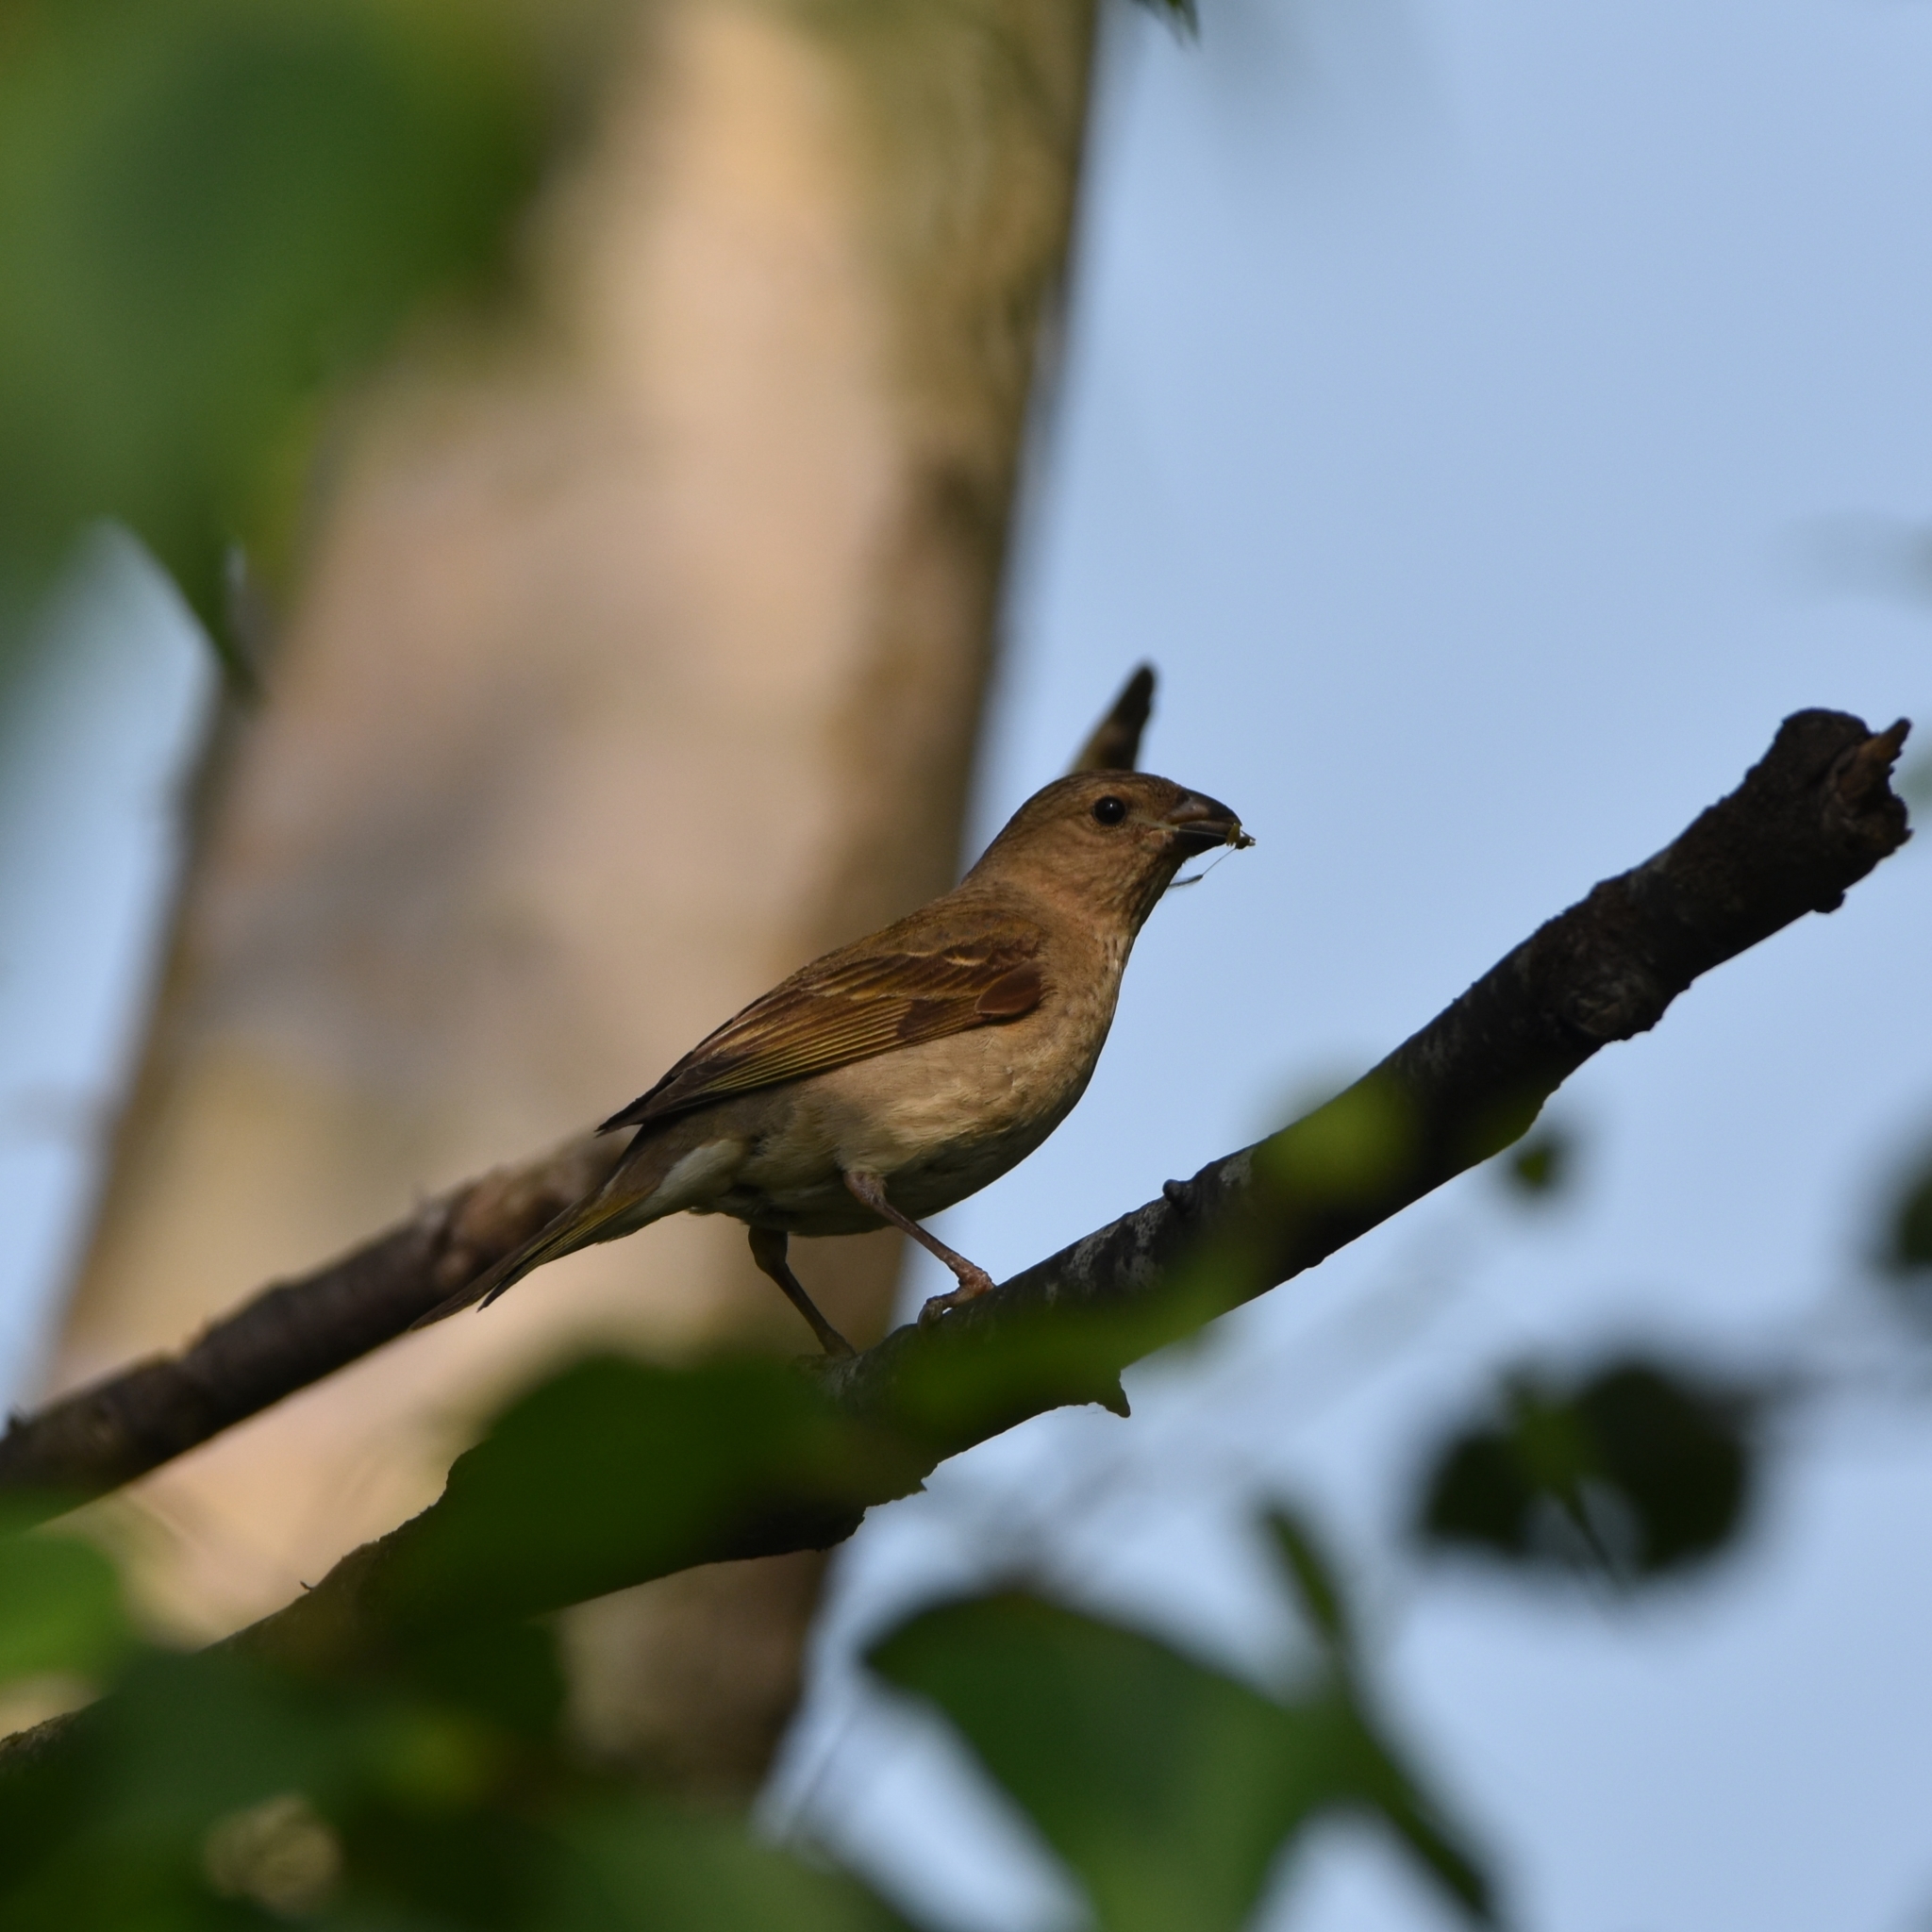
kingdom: Animalia
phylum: Chordata
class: Aves
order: Passeriformes
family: Fringillidae
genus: Carpodacus
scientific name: Carpodacus erythrinus
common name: Common rosefinch
